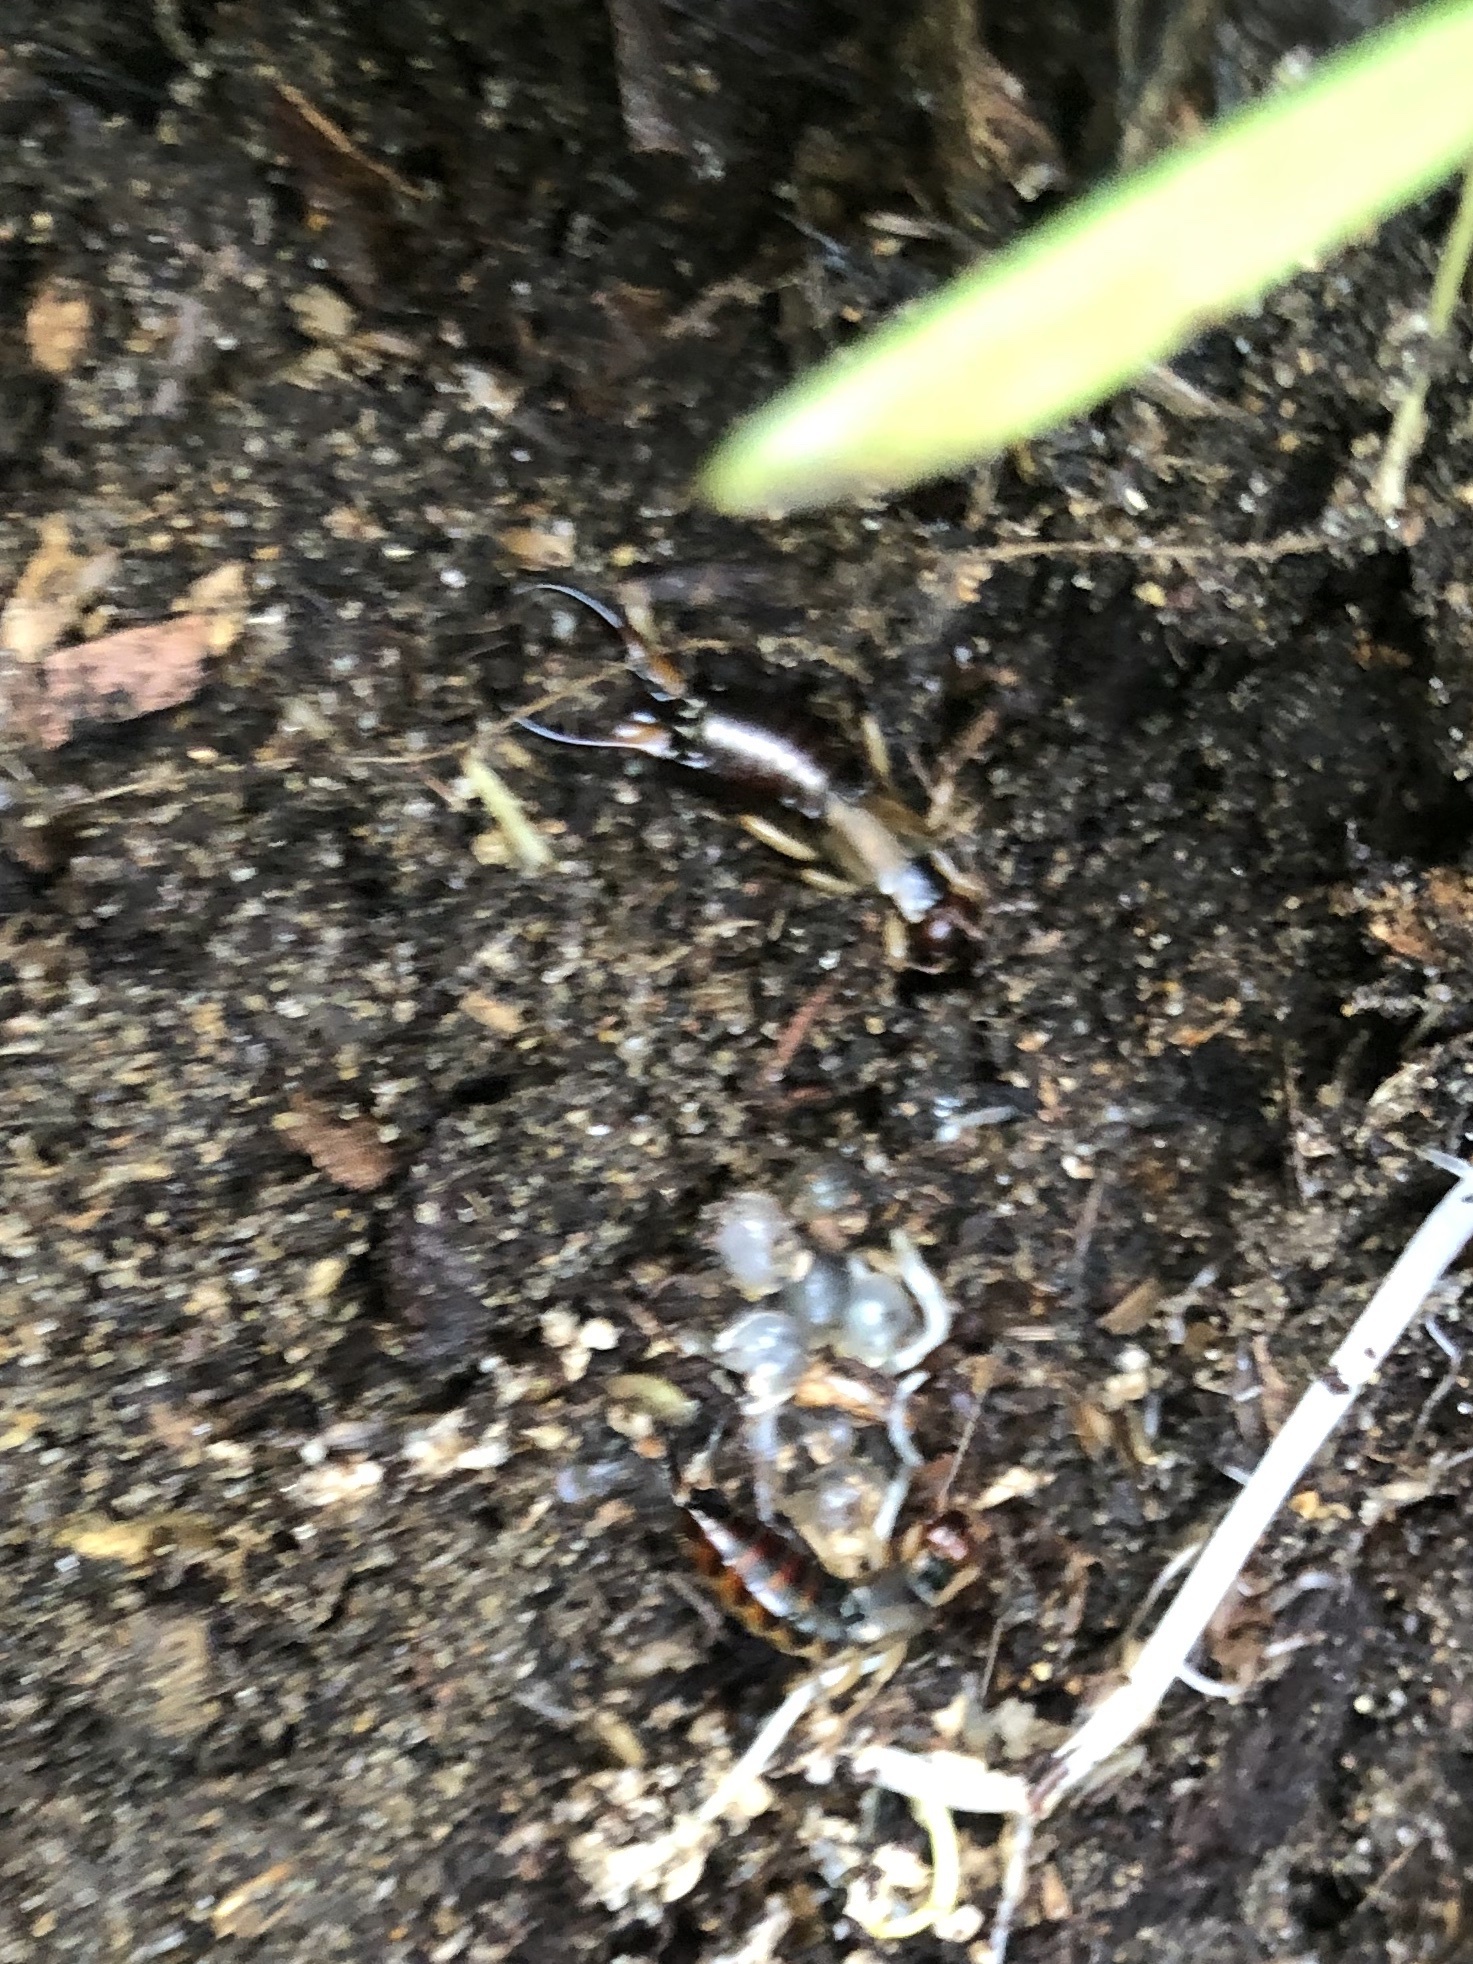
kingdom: Animalia
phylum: Arthropoda
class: Insecta
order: Dermaptera
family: Forficulidae
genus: Forficula
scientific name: Forficula
